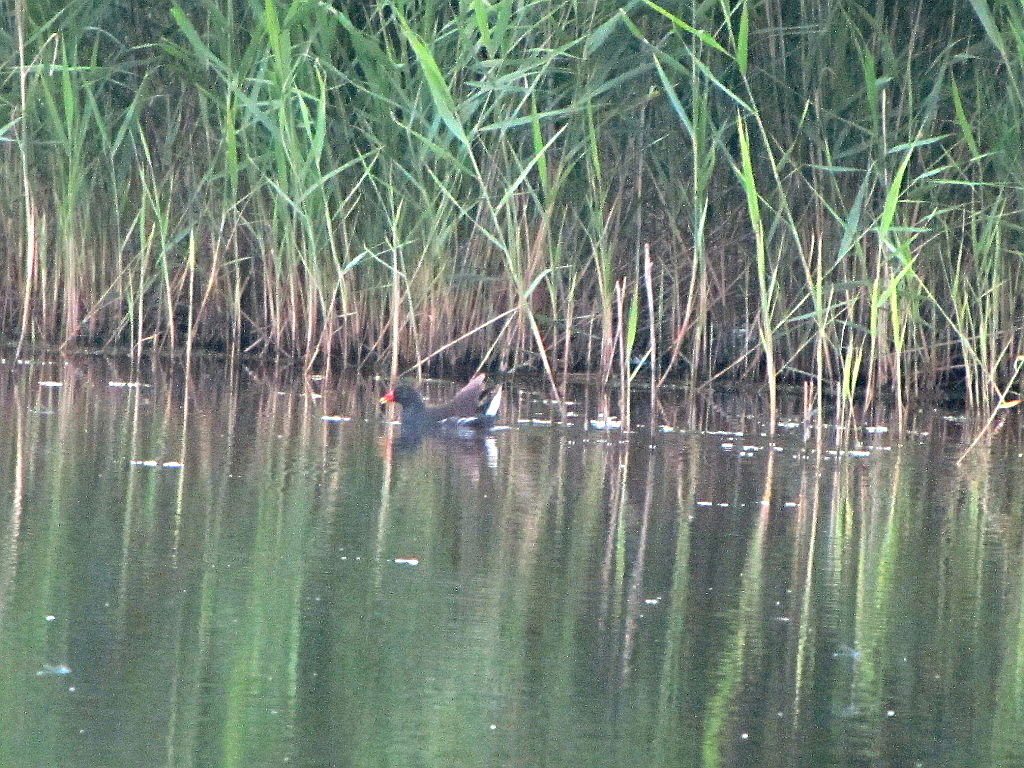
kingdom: Animalia
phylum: Chordata
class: Aves
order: Gruiformes
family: Rallidae
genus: Gallinula
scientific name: Gallinula chloropus
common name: Common moorhen
